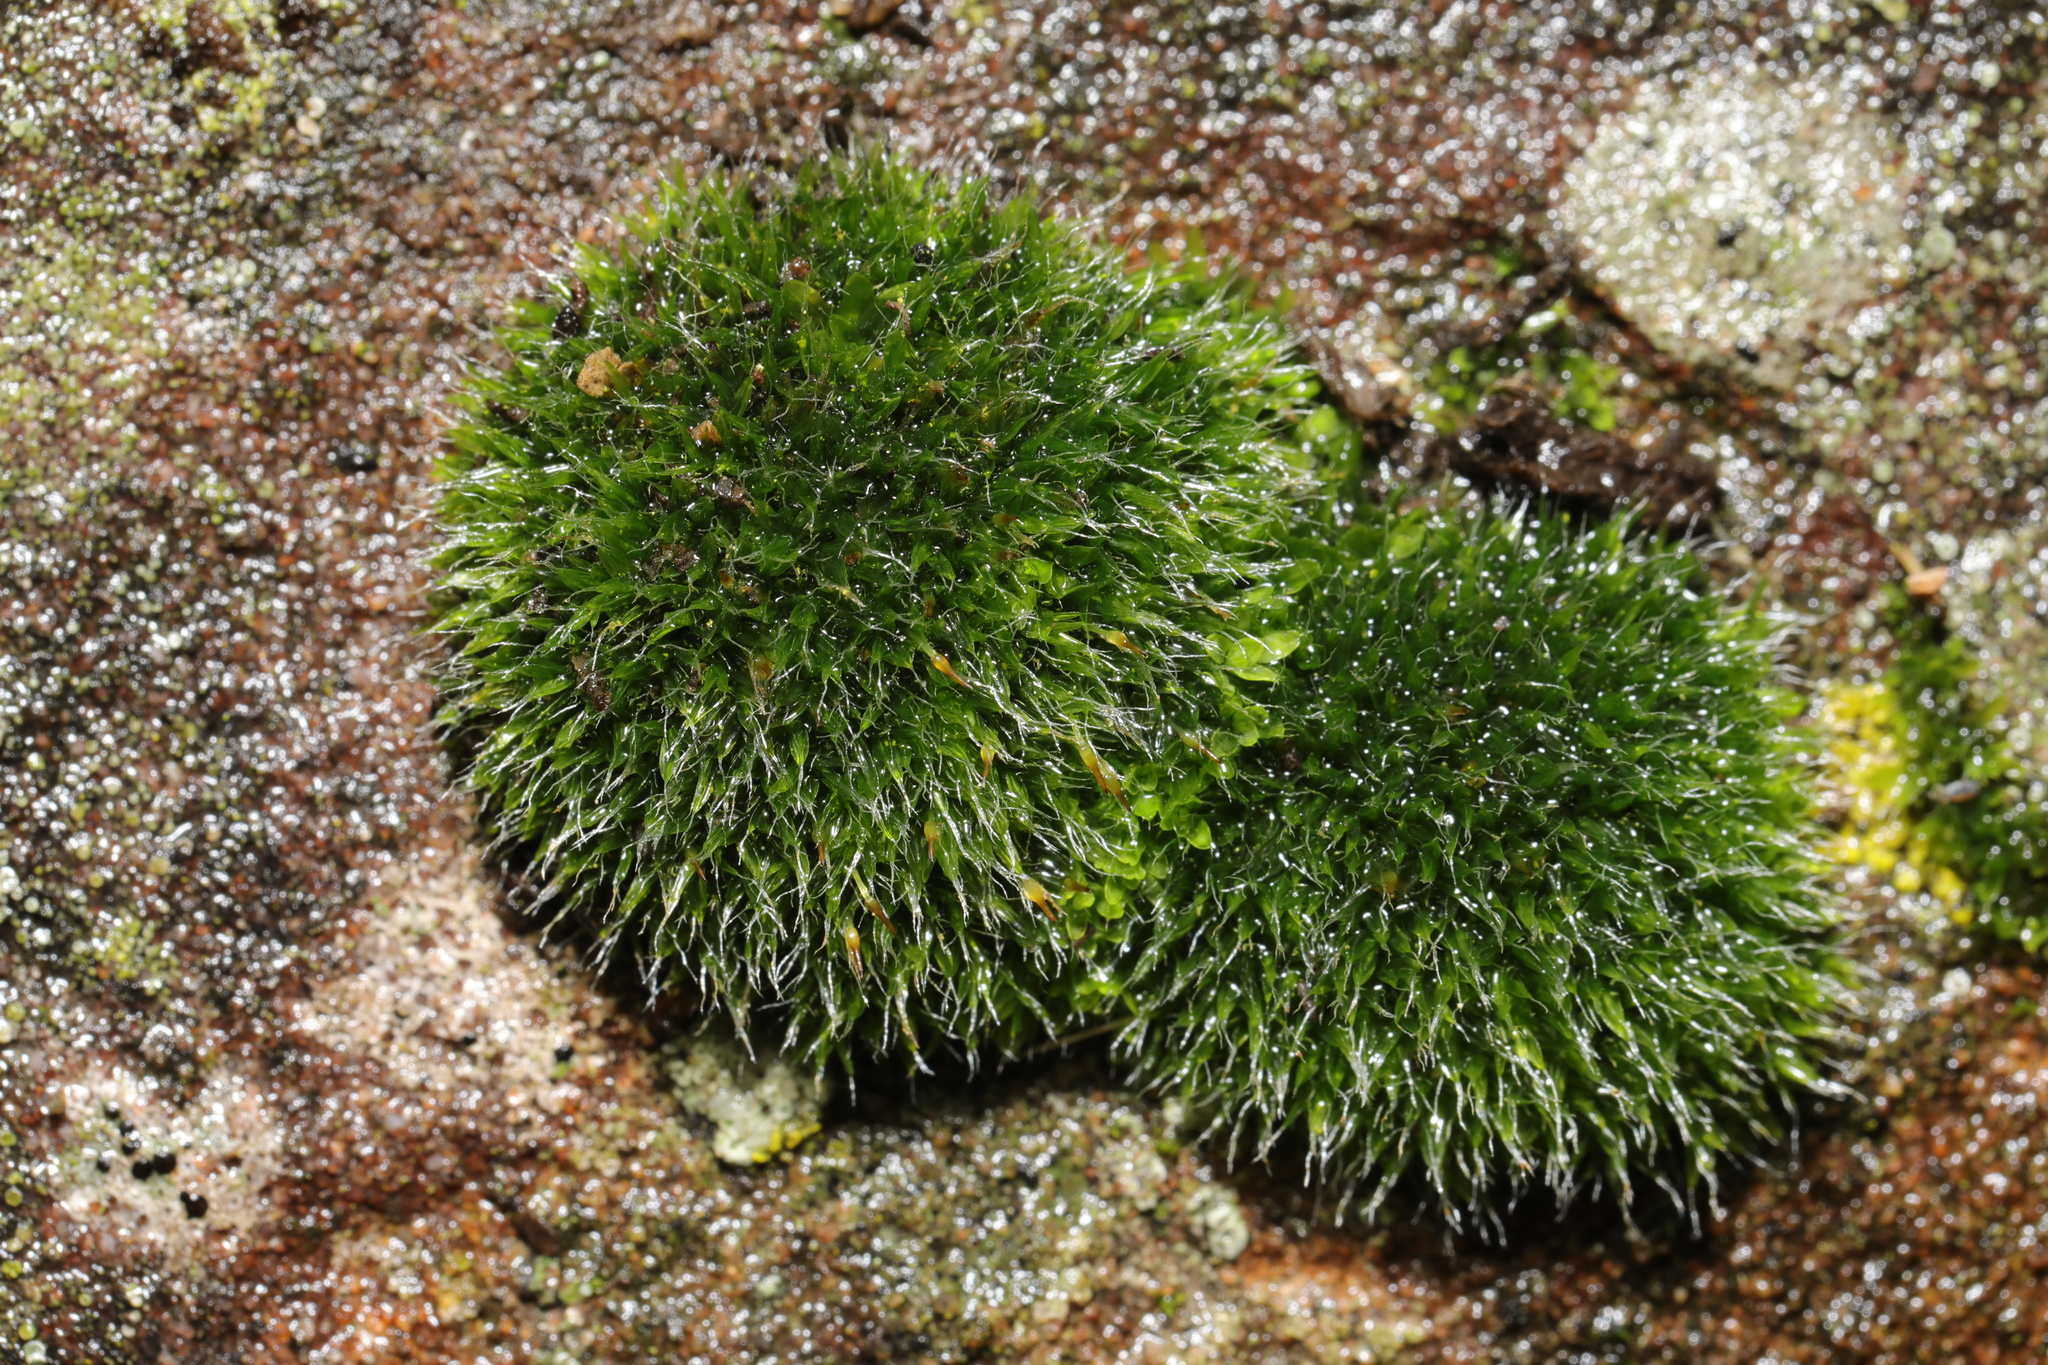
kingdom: Plantae
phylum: Bryophyta
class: Bryopsida
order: Grimmiales
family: Grimmiaceae
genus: Grimmia
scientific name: Grimmia pulvinata
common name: Grey-cushioned grimmia
